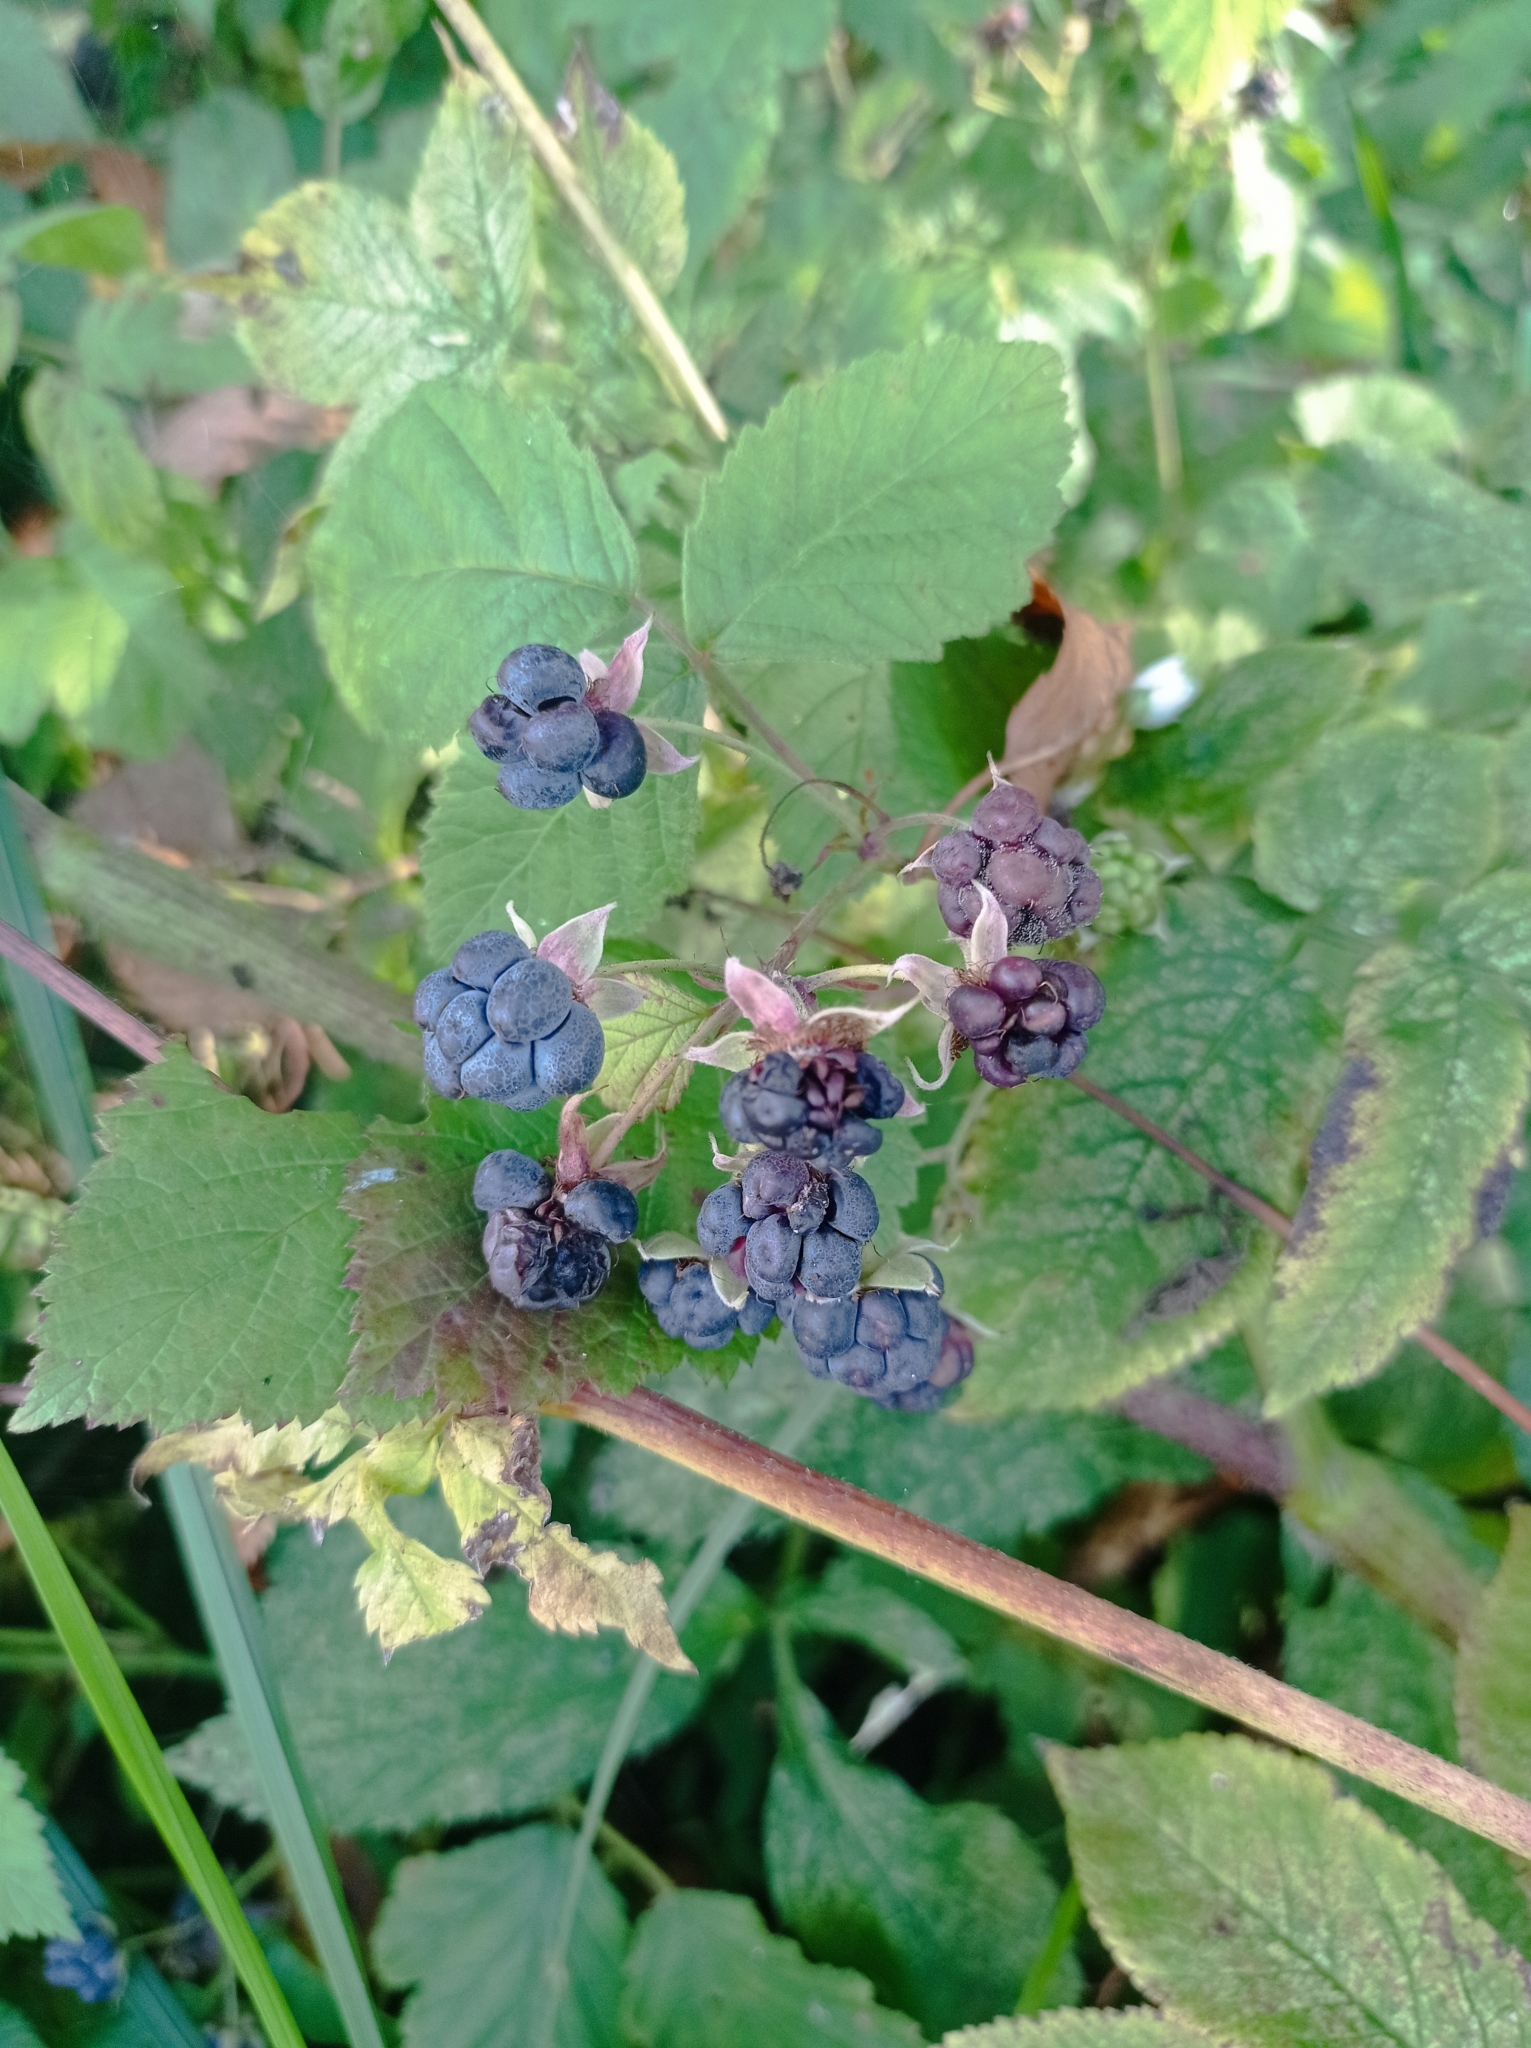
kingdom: Plantae
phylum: Tracheophyta
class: Magnoliopsida
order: Rosales
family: Rosaceae
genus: Rubus
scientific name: Rubus caesius
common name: Dewberry
